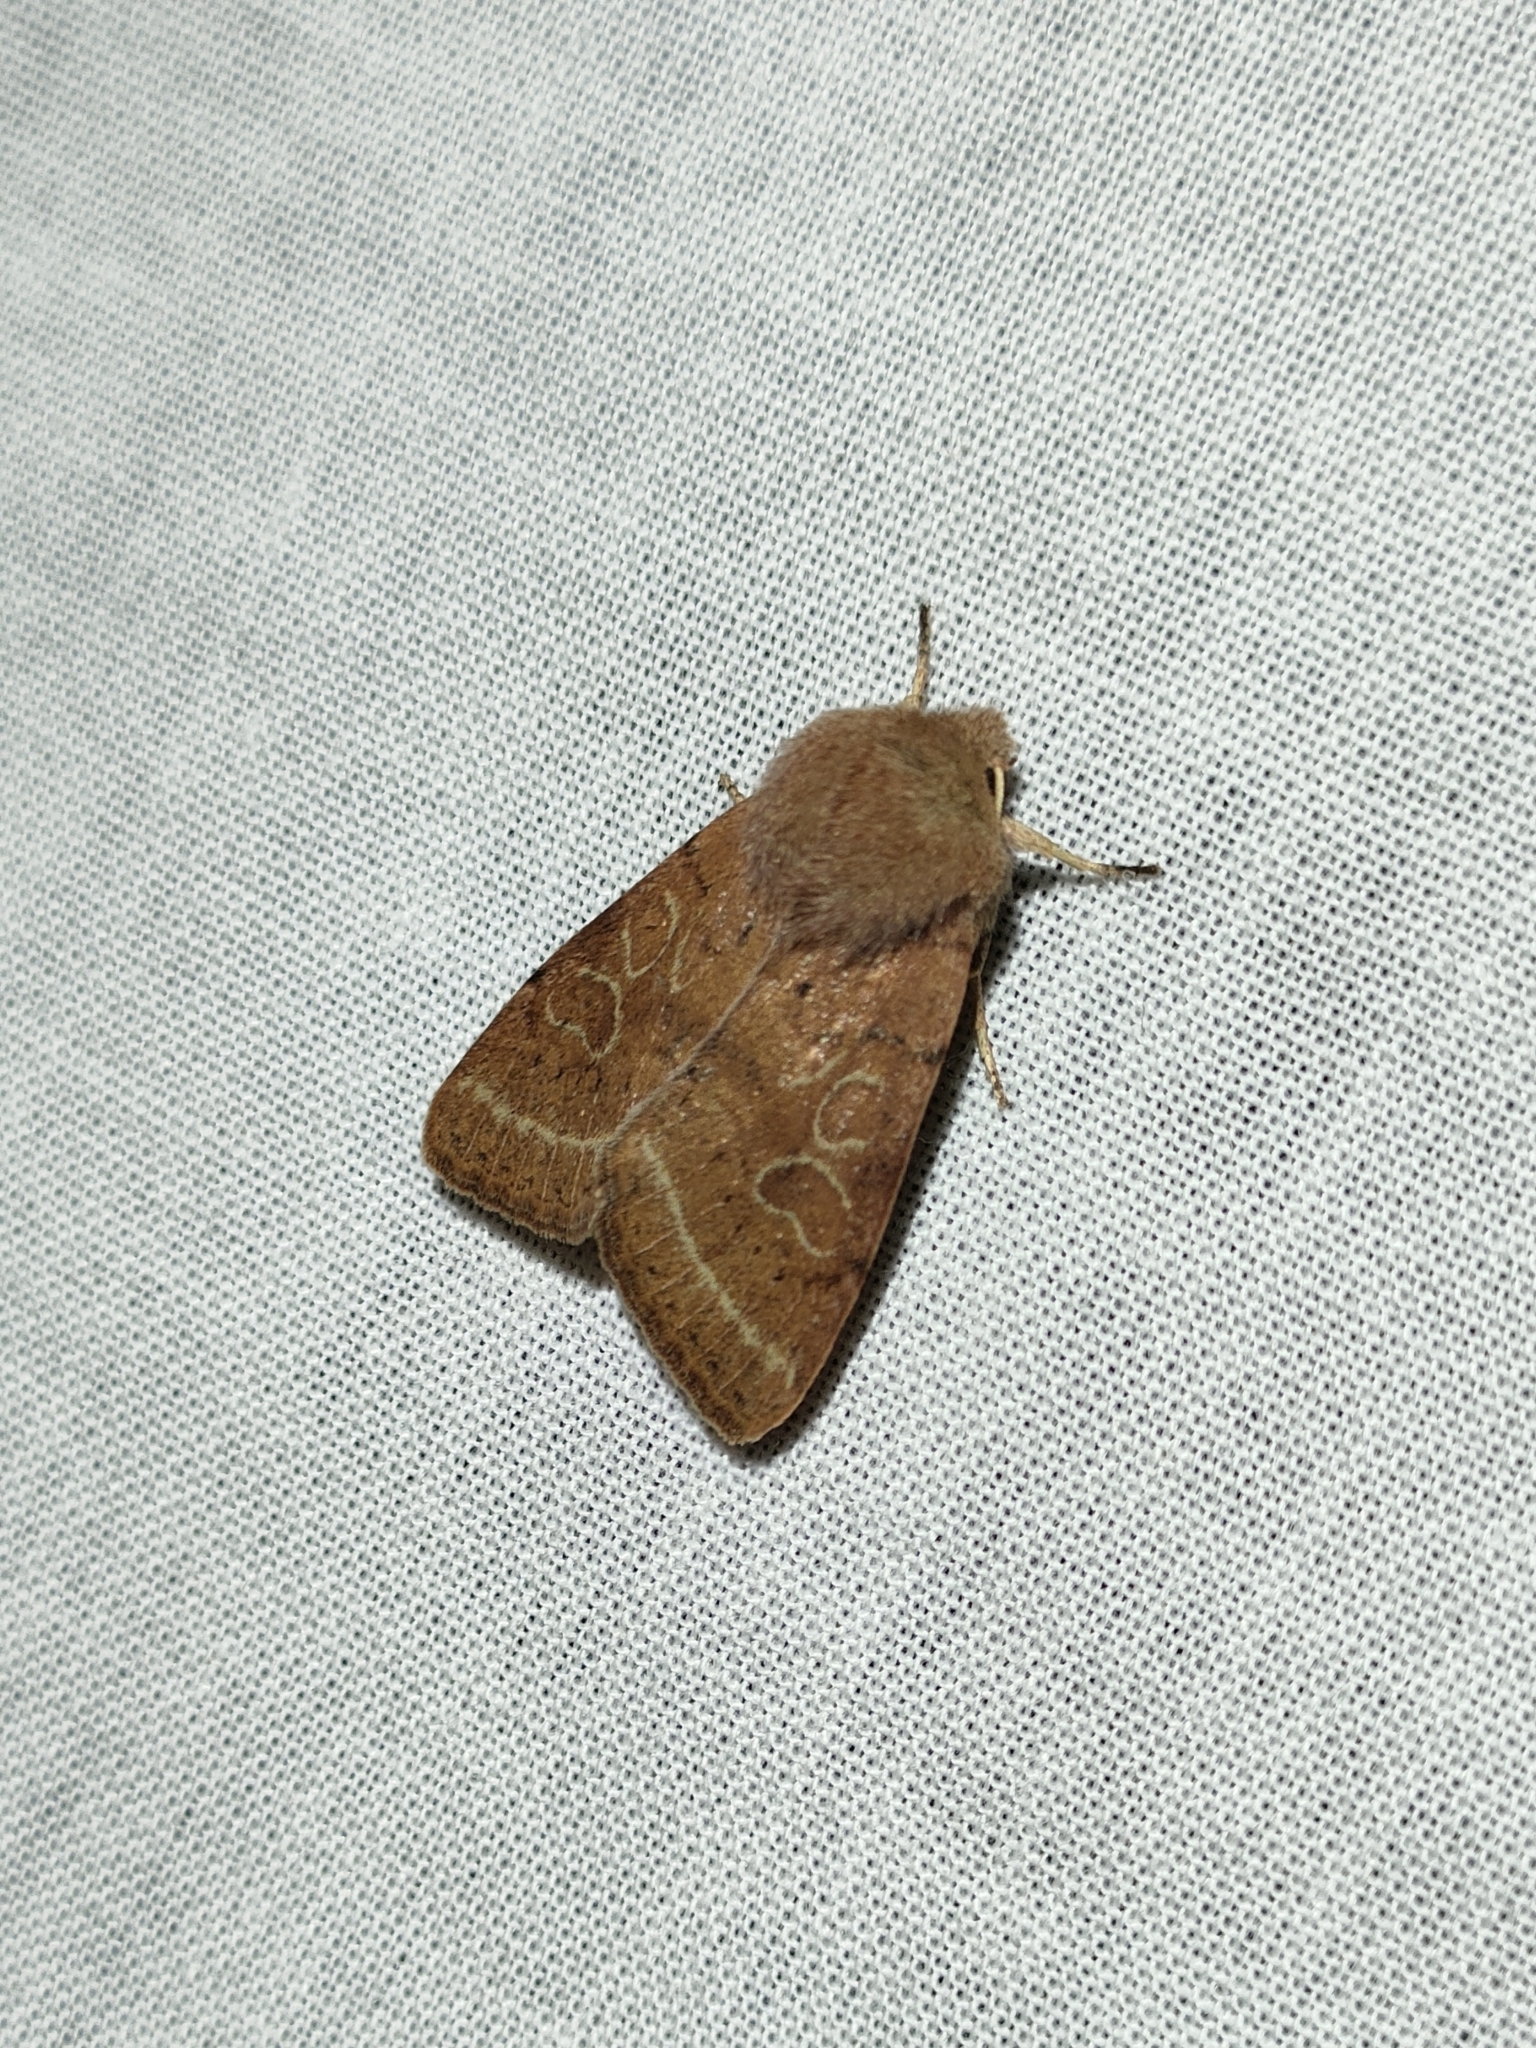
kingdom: Animalia
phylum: Arthropoda
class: Insecta
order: Lepidoptera
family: Noctuidae
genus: Orthosia
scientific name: Orthosia cerasi
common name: Common quaker
